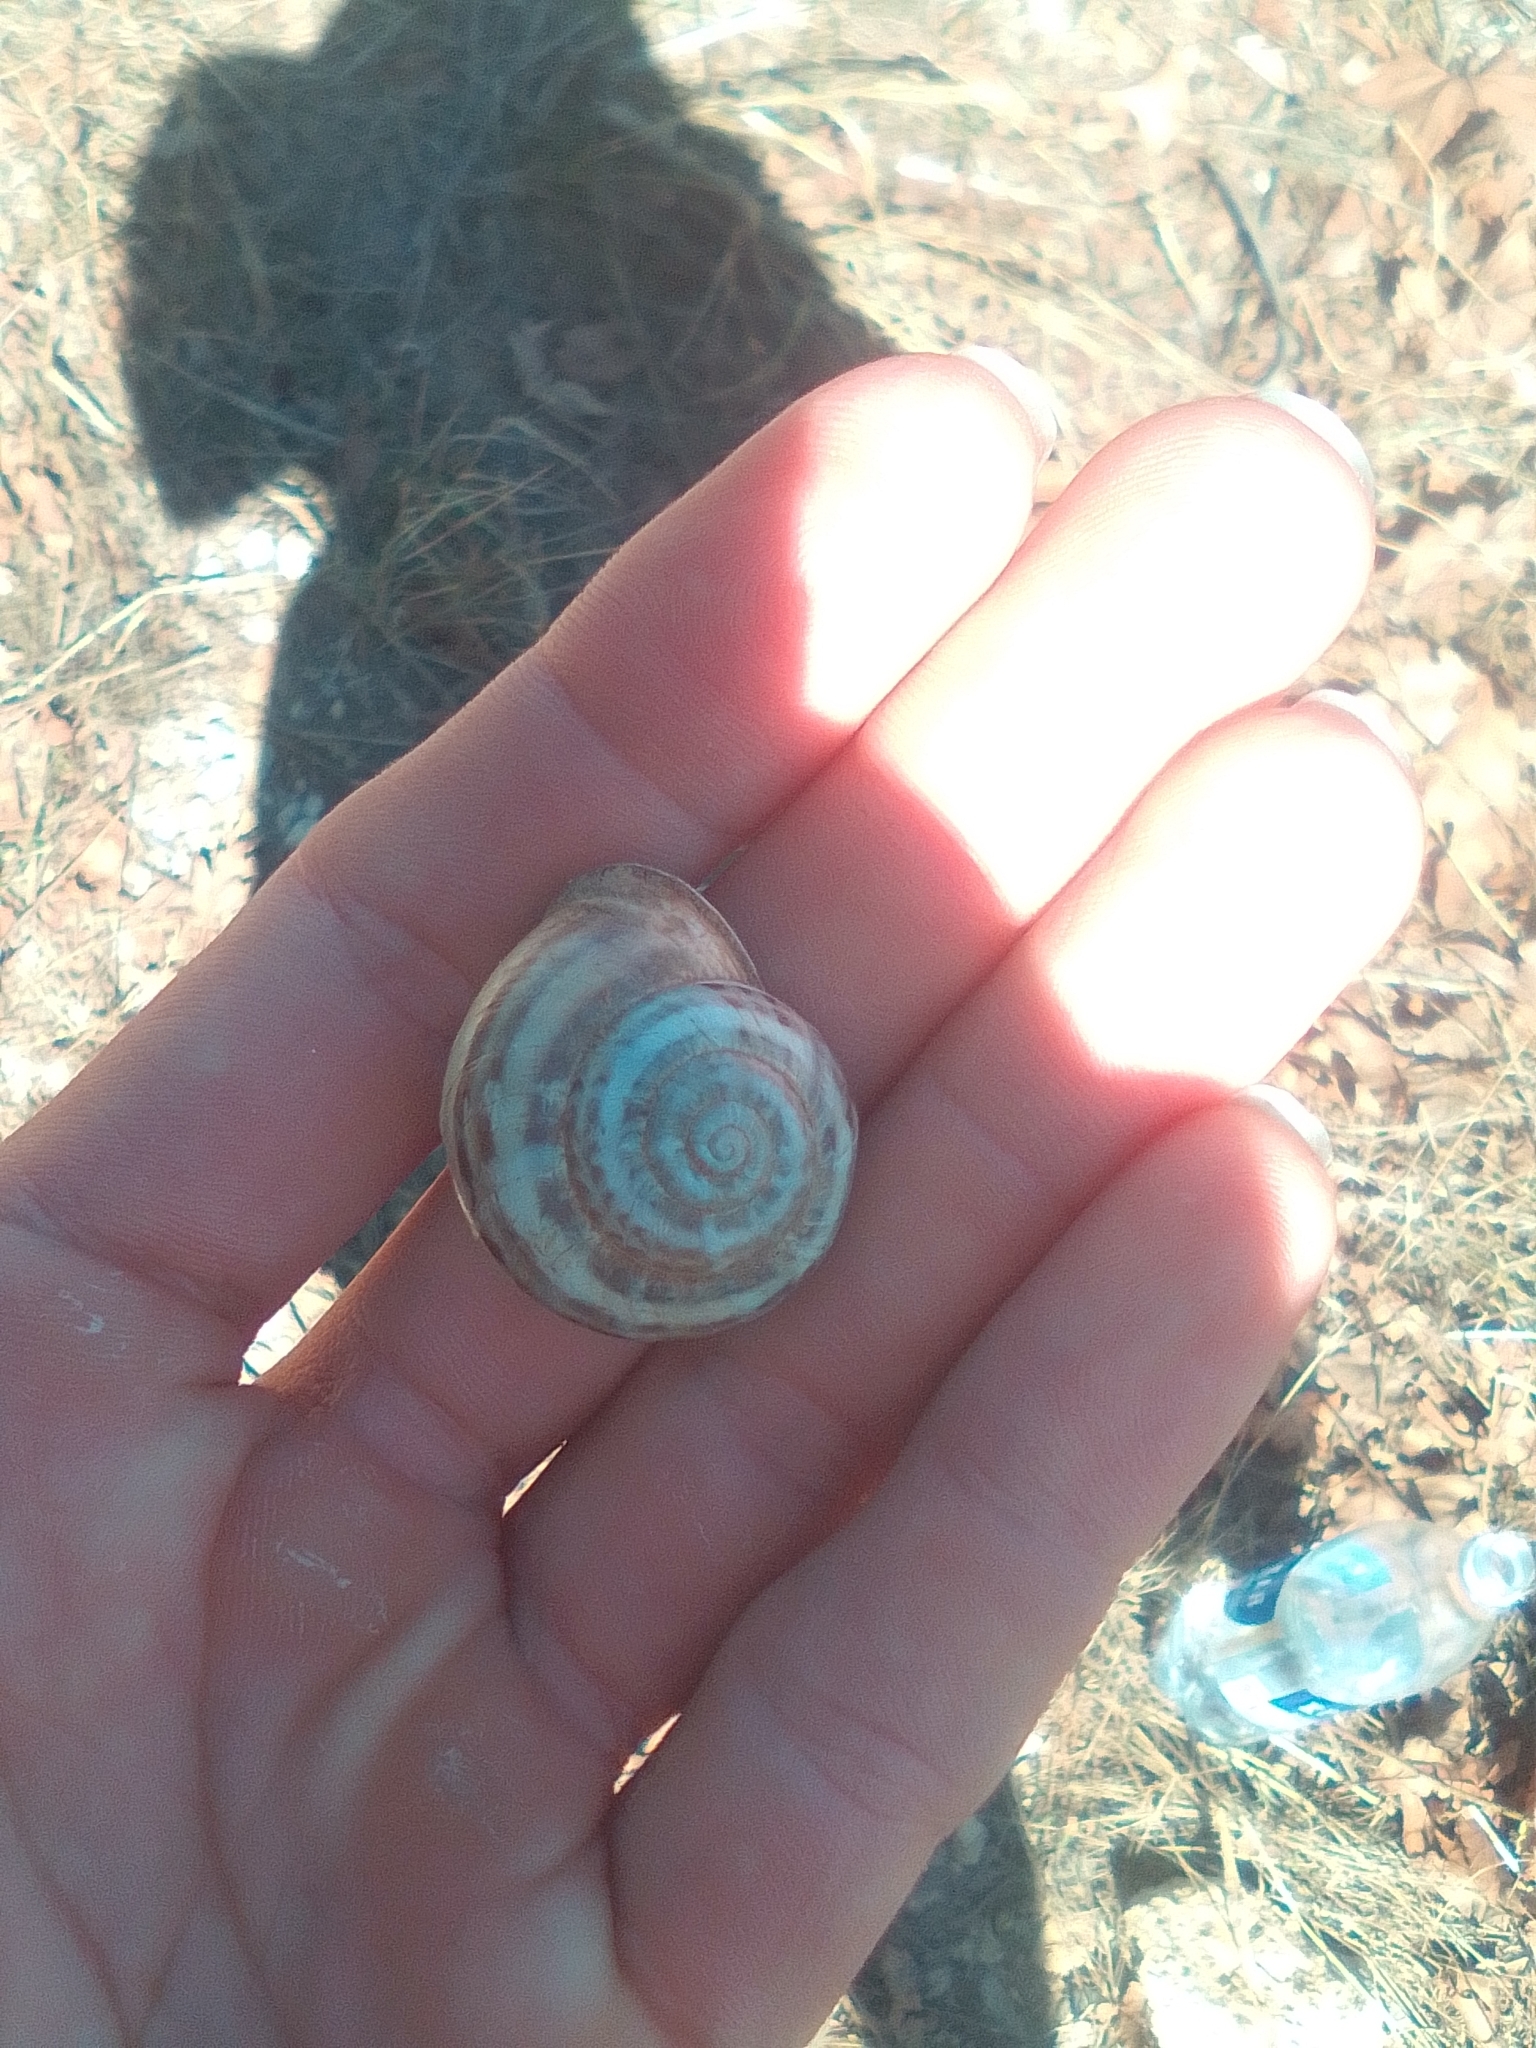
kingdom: Animalia
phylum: Mollusca
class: Gastropoda
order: Stylommatophora
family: Helicidae
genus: Eobania
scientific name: Eobania vermiculata
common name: Chocolateband snail
